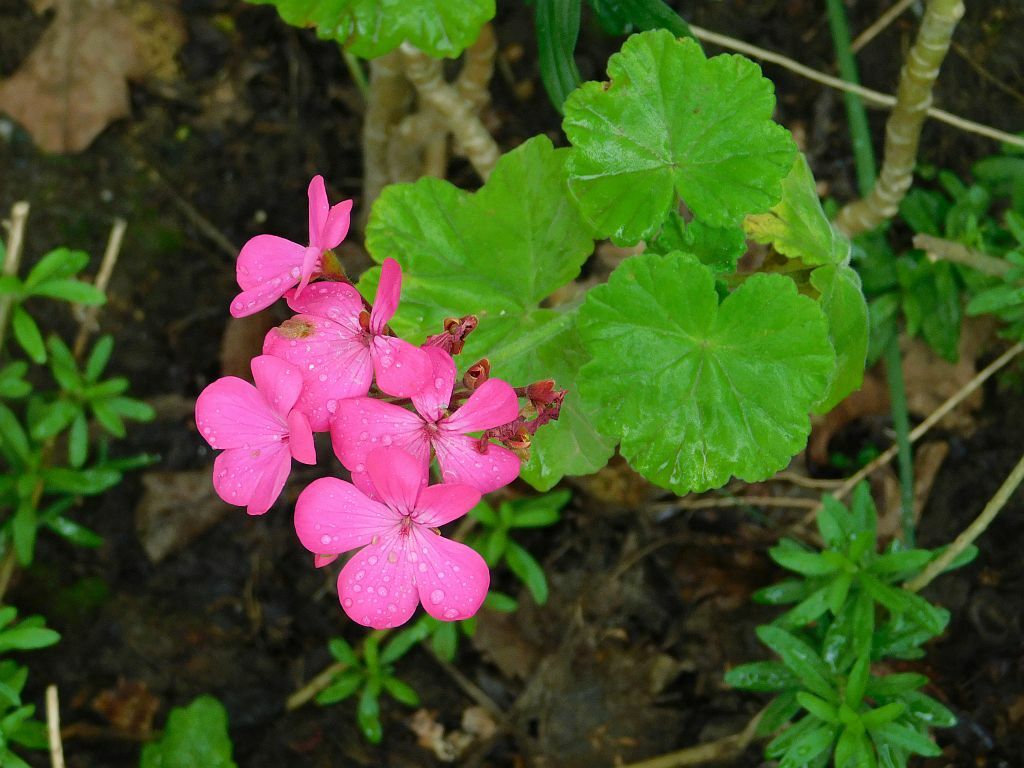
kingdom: Plantae
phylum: Tracheophyta
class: Magnoliopsida
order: Geraniales
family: Geraniaceae
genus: Pelargonium
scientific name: Pelargonium hybridum
